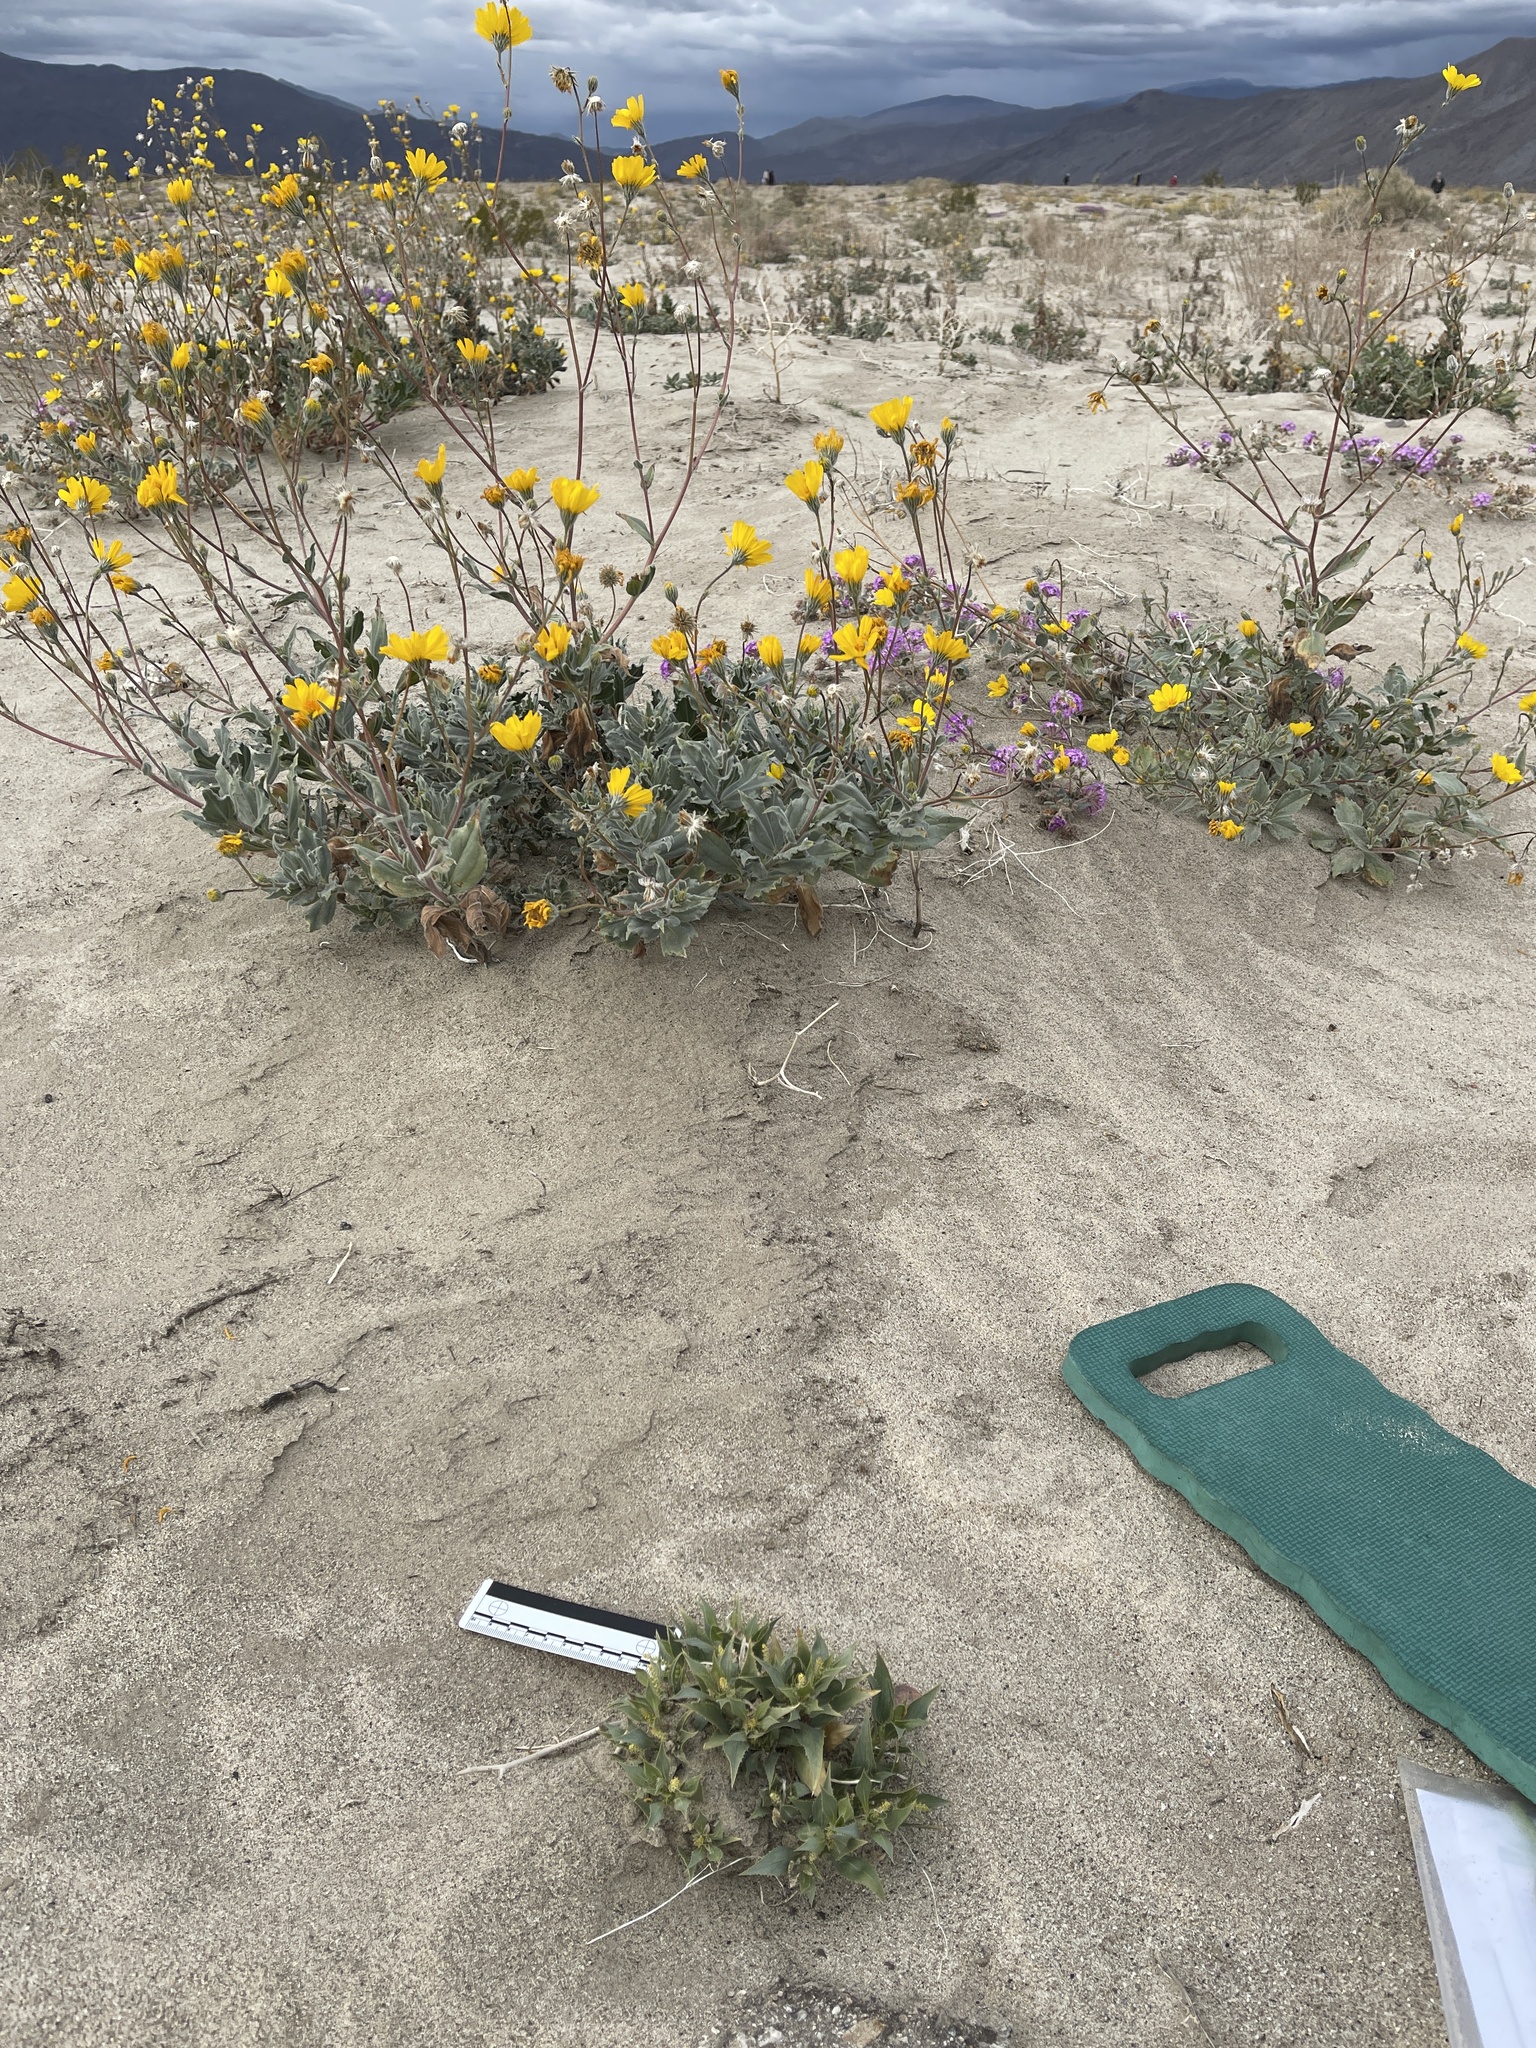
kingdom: Plantae
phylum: Tracheophyta
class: Magnoliopsida
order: Malpighiales
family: Euphorbiaceae
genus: Stillingia
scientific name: Stillingia spinulosa
